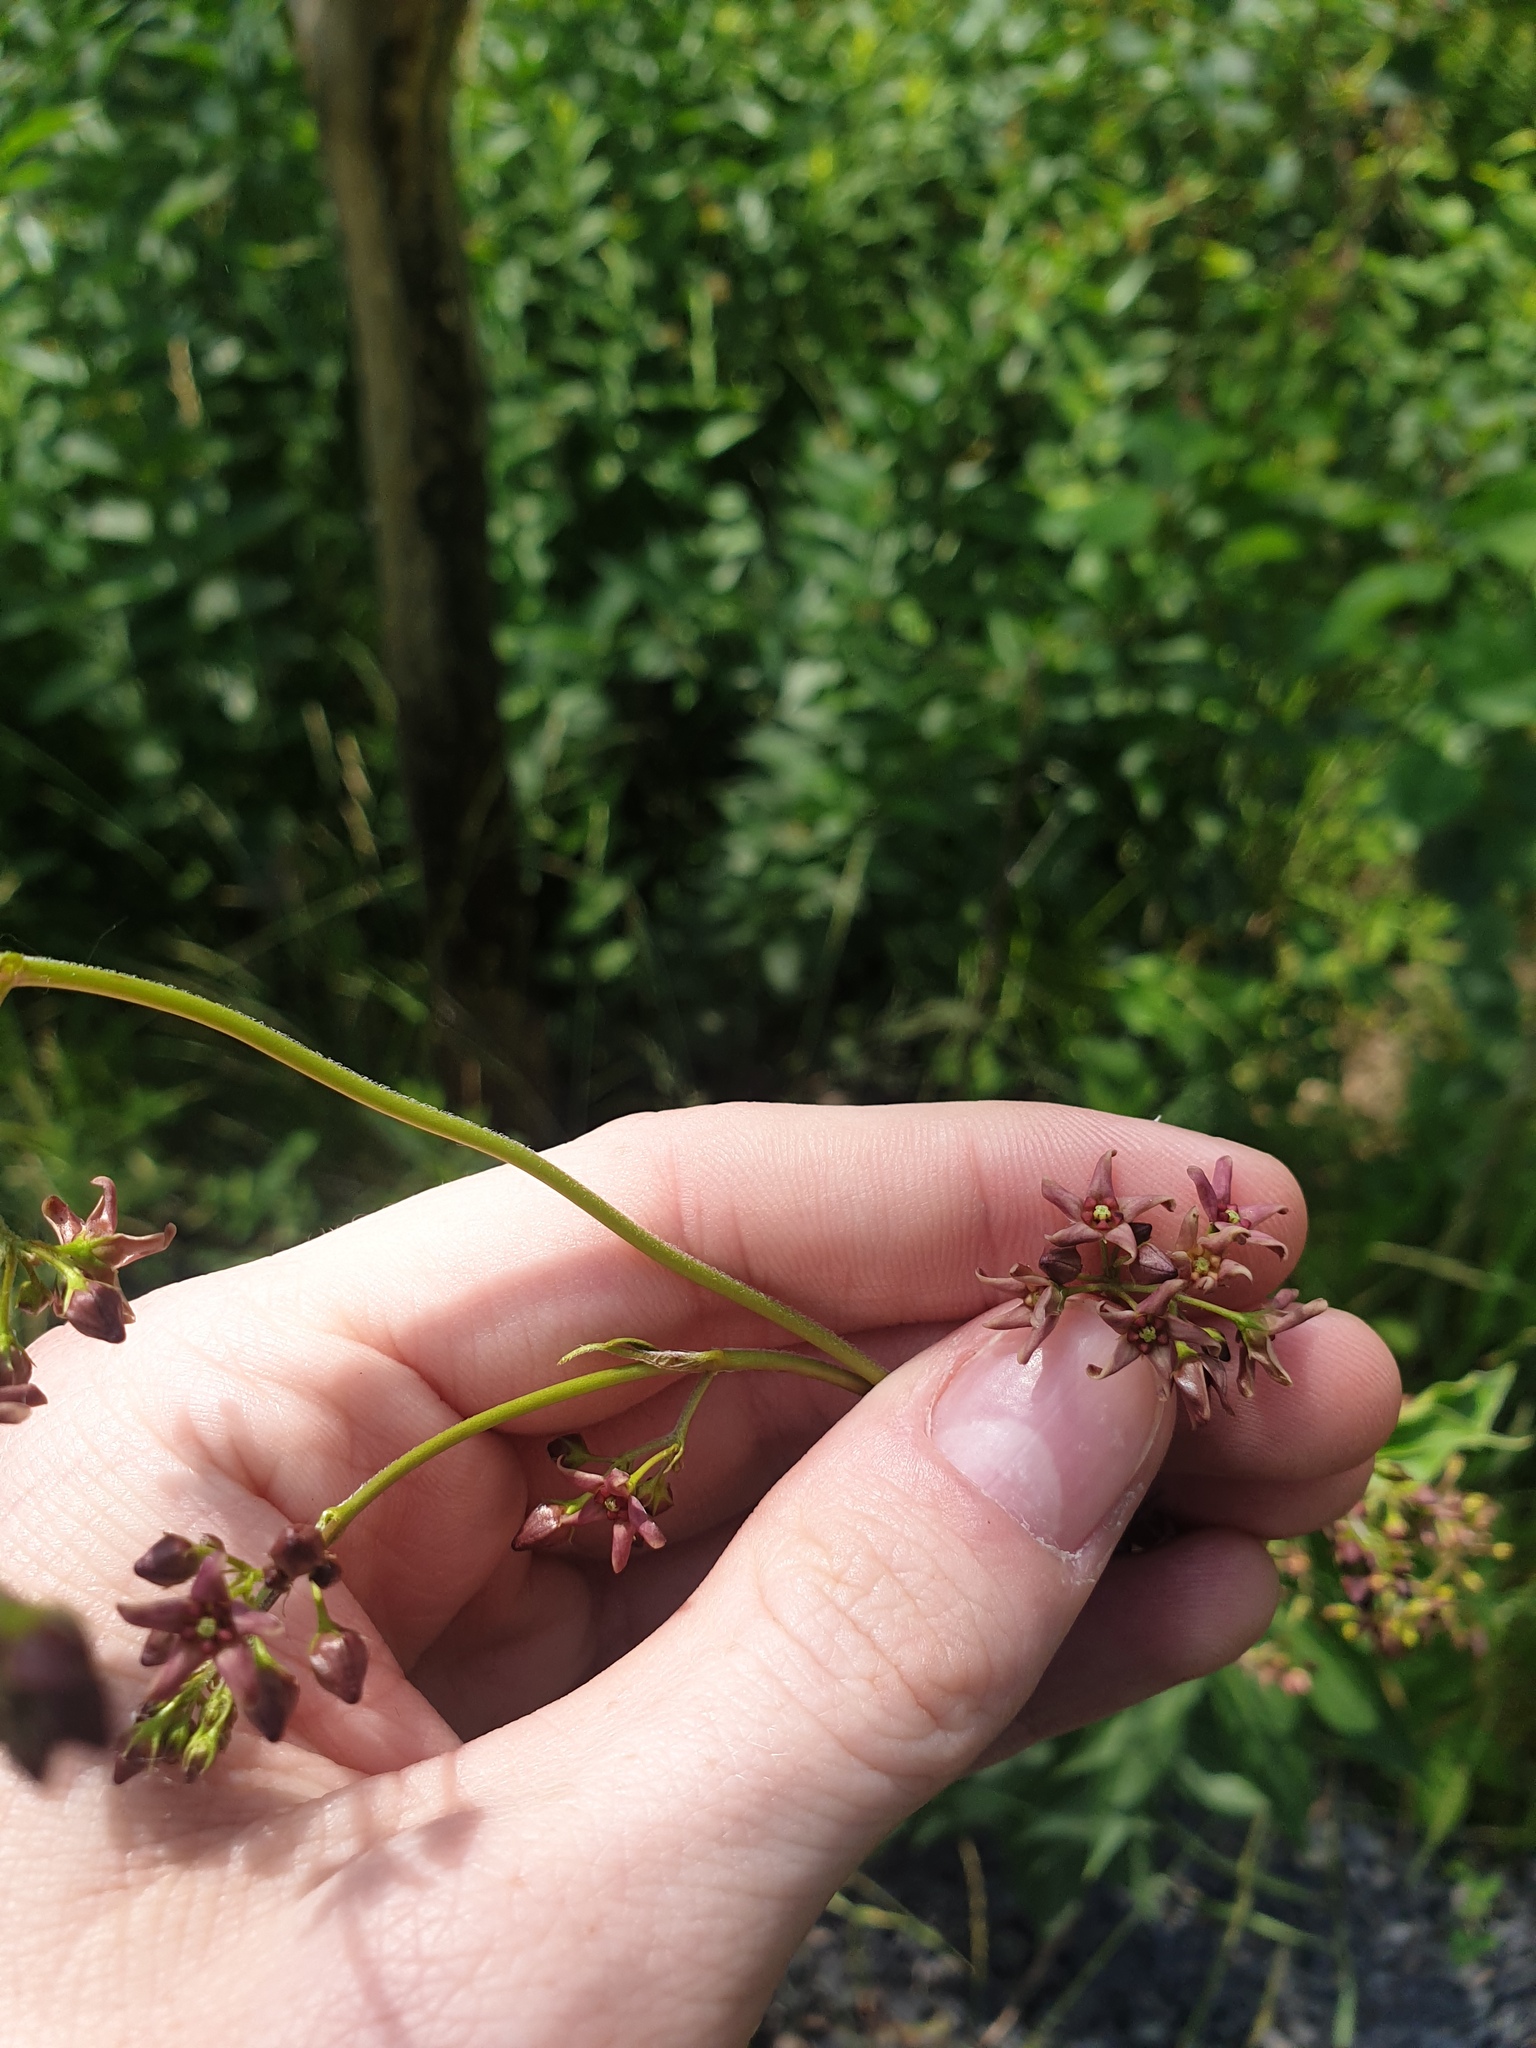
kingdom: Plantae
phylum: Tracheophyta
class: Magnoliopsida
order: Gentianales
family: Apocynaceae
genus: Vincetoxicum
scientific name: Vincetoxicum rossicum
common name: Dog-strangling vine
